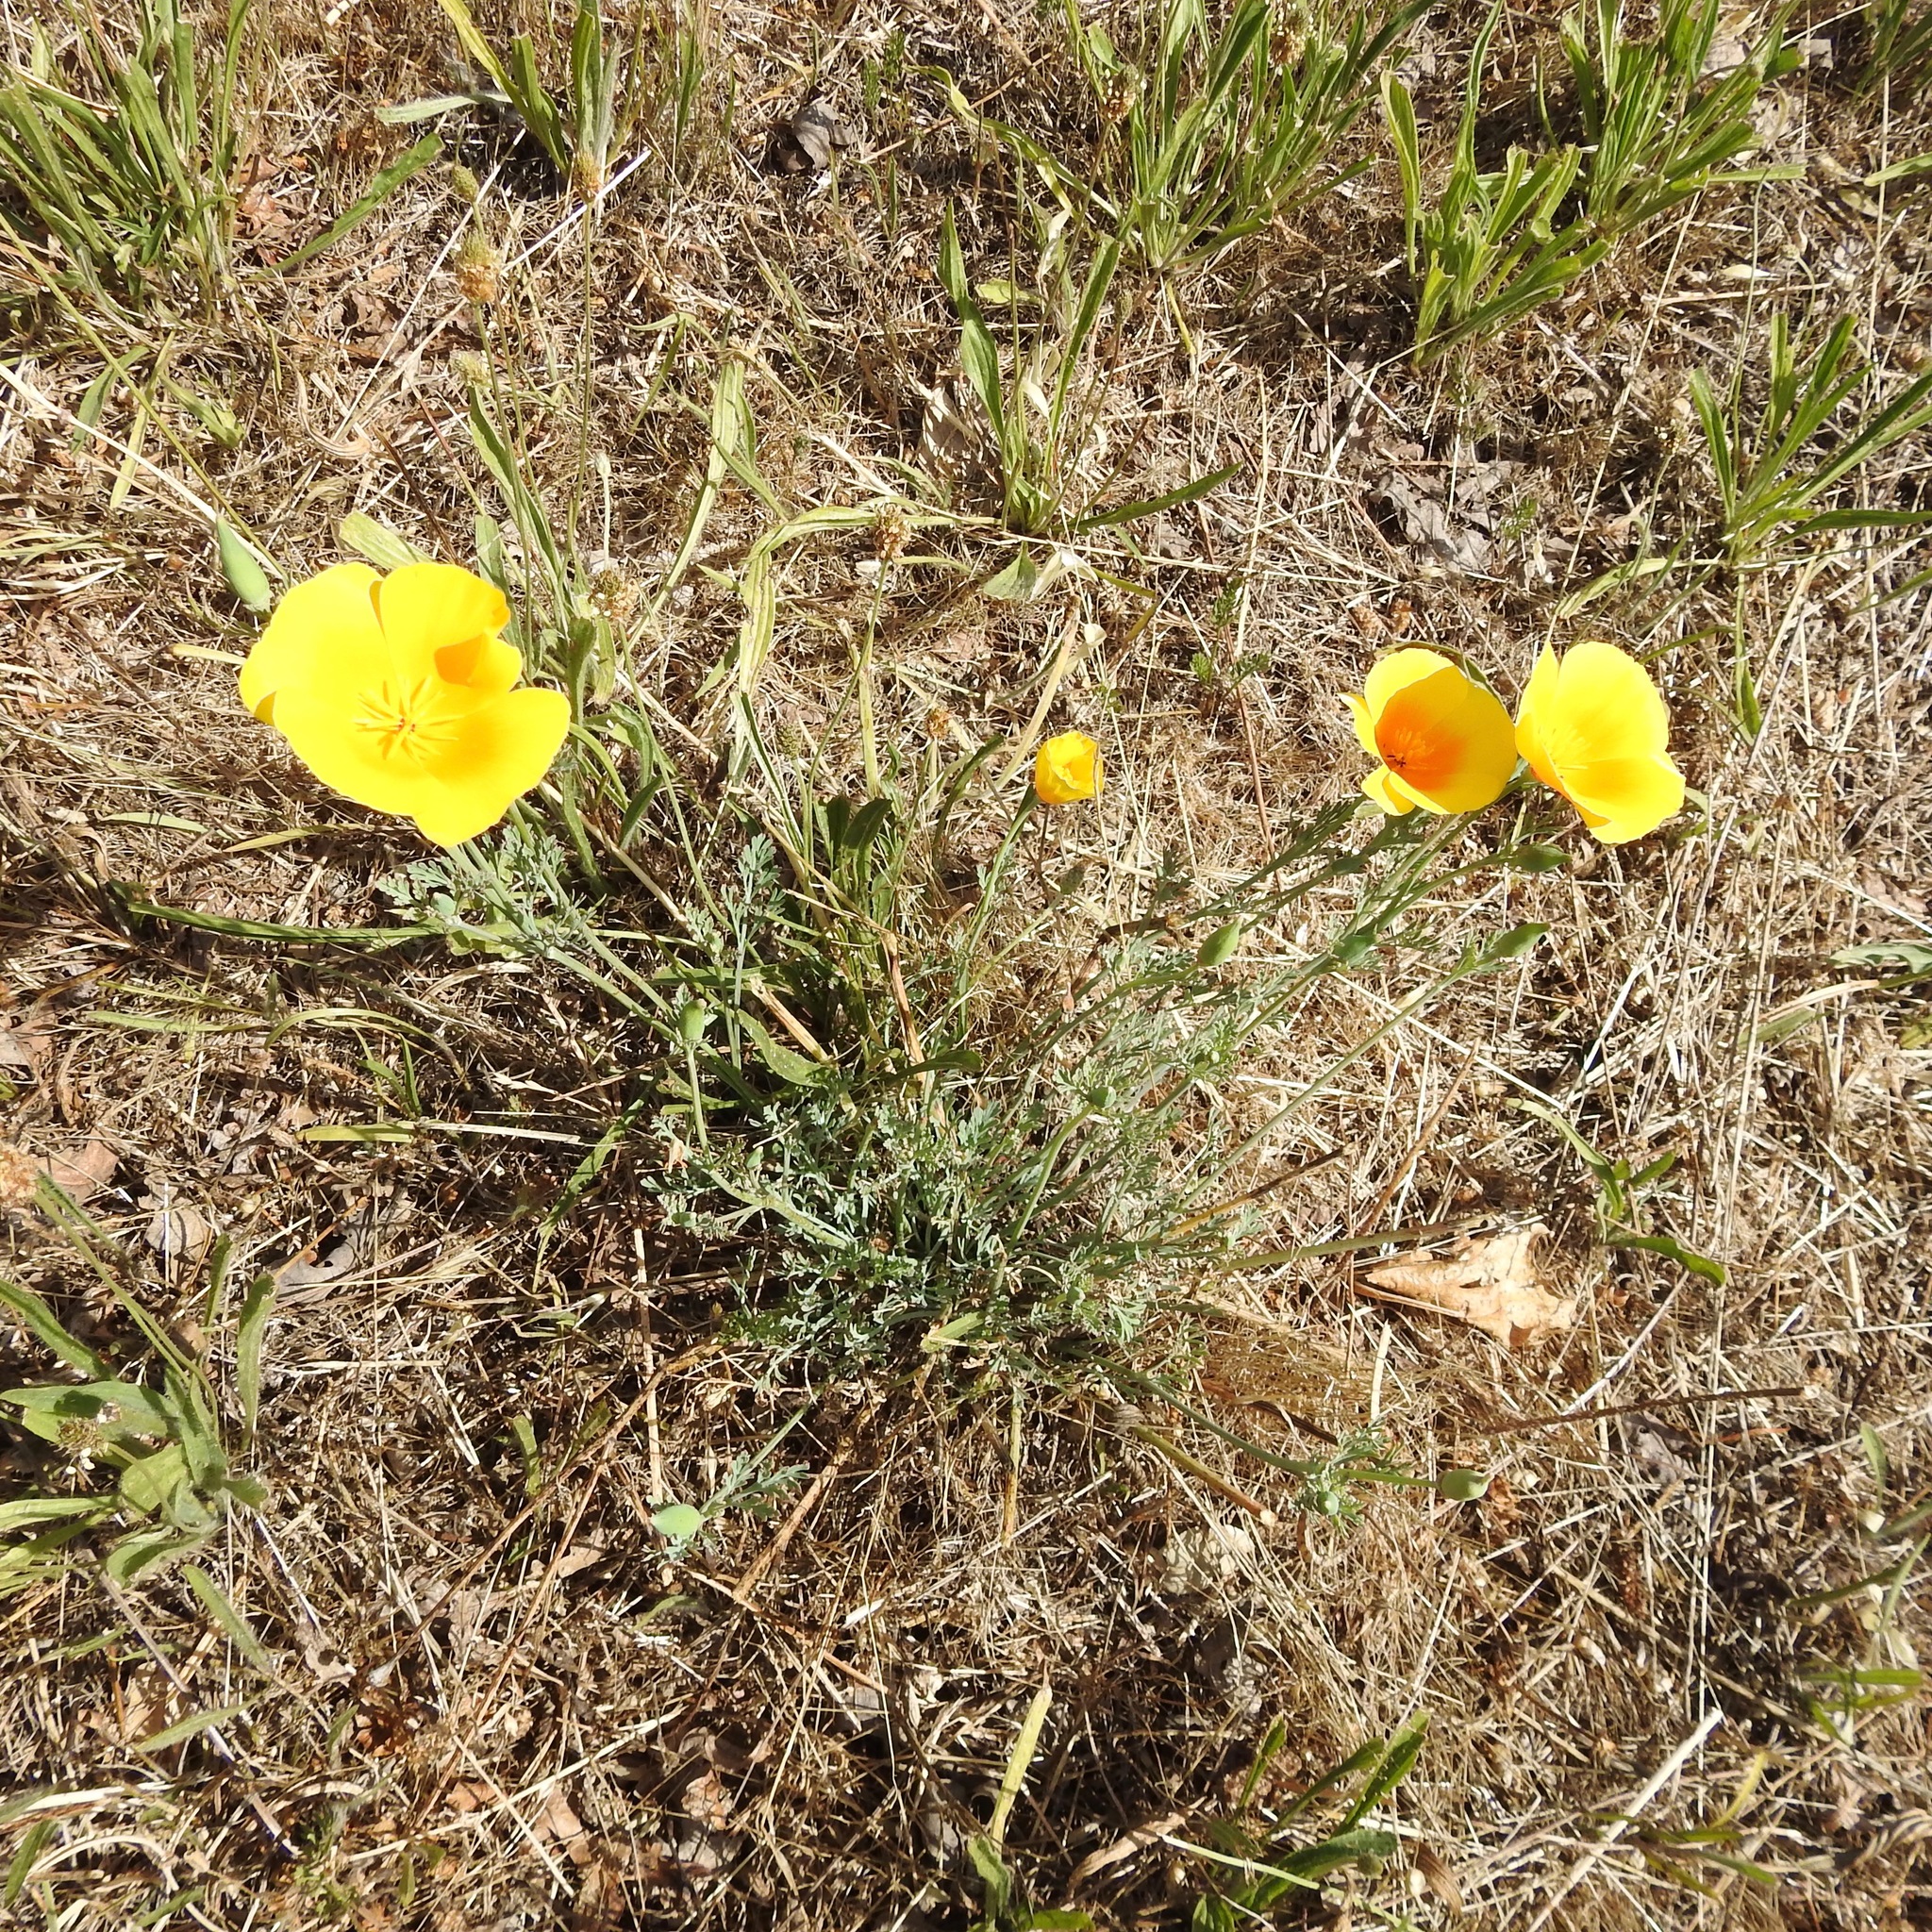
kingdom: Plantae
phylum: Tracheophyta
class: Magnoliopsida
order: Ranunculales
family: Papaveraceae
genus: Eschscholzia
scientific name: Eschscholzia californica
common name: California poppy
